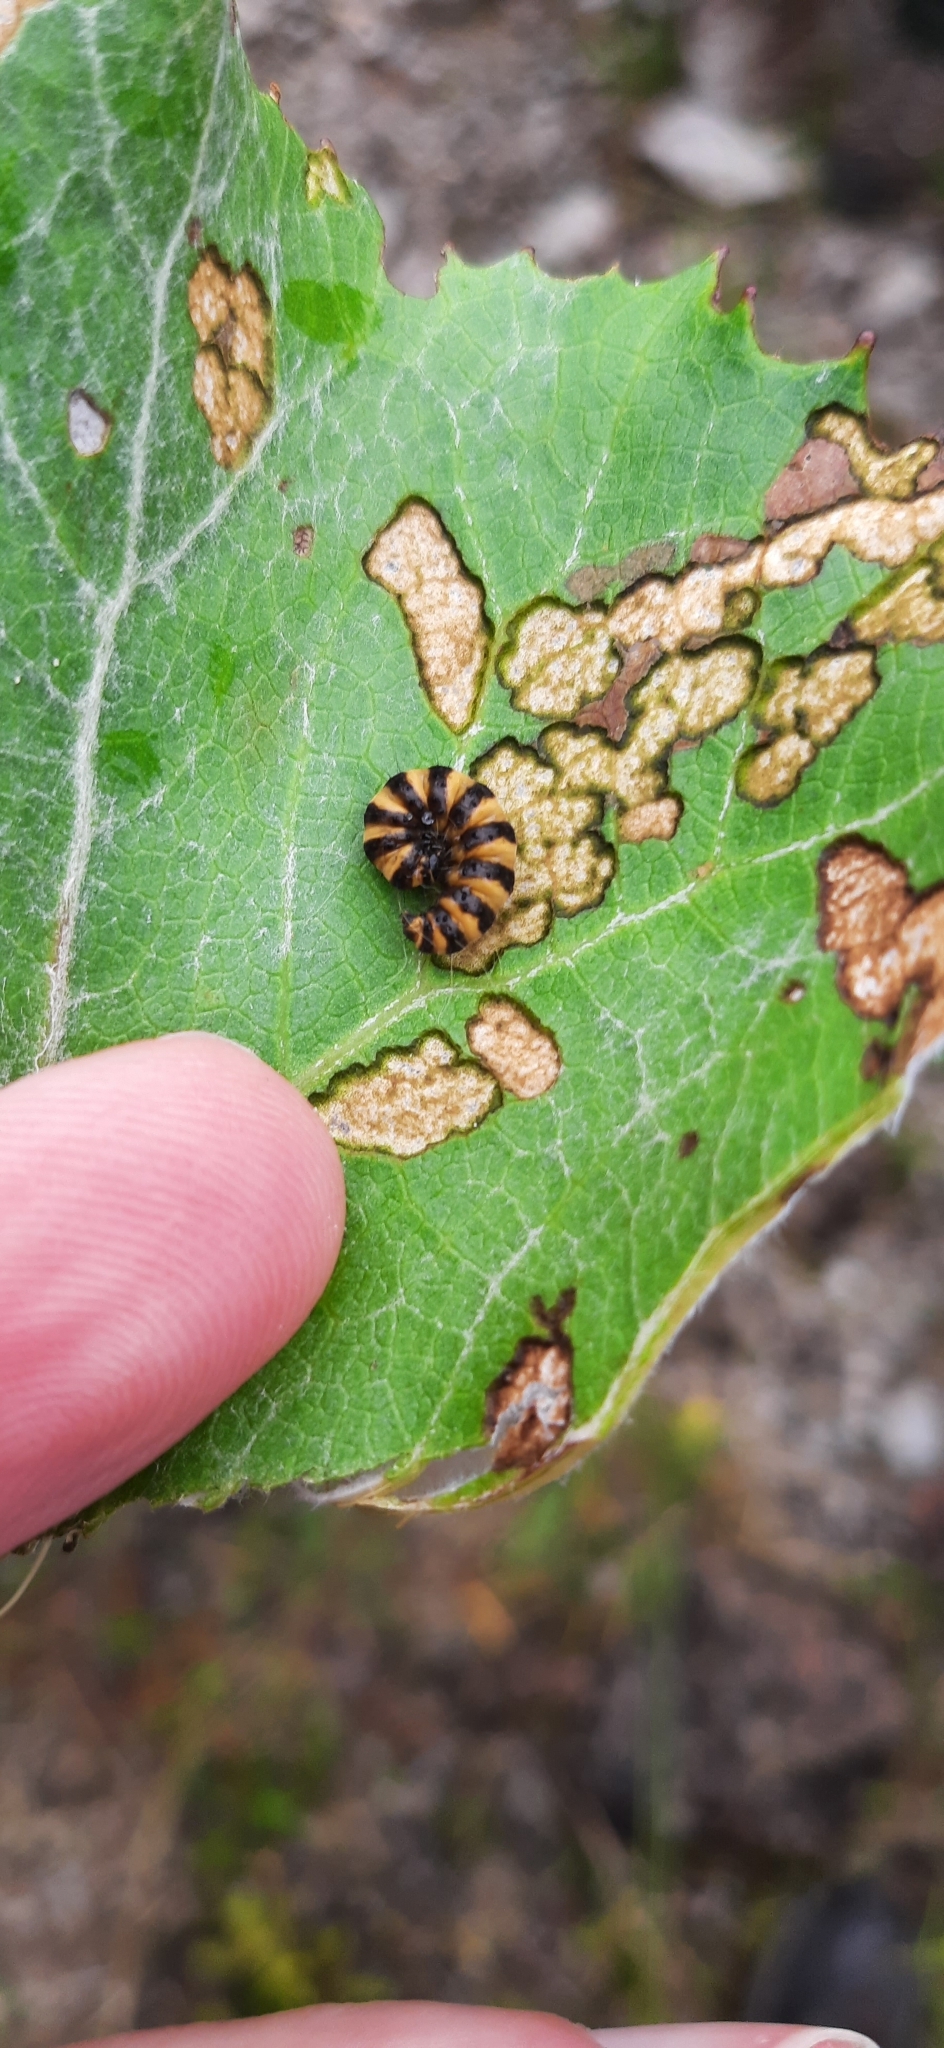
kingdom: Animalia
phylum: Arthropoda
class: Insecta
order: Lepidoptera
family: Erebidae
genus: Tyria
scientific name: Tyria jacobaeae
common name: Cinnabar
